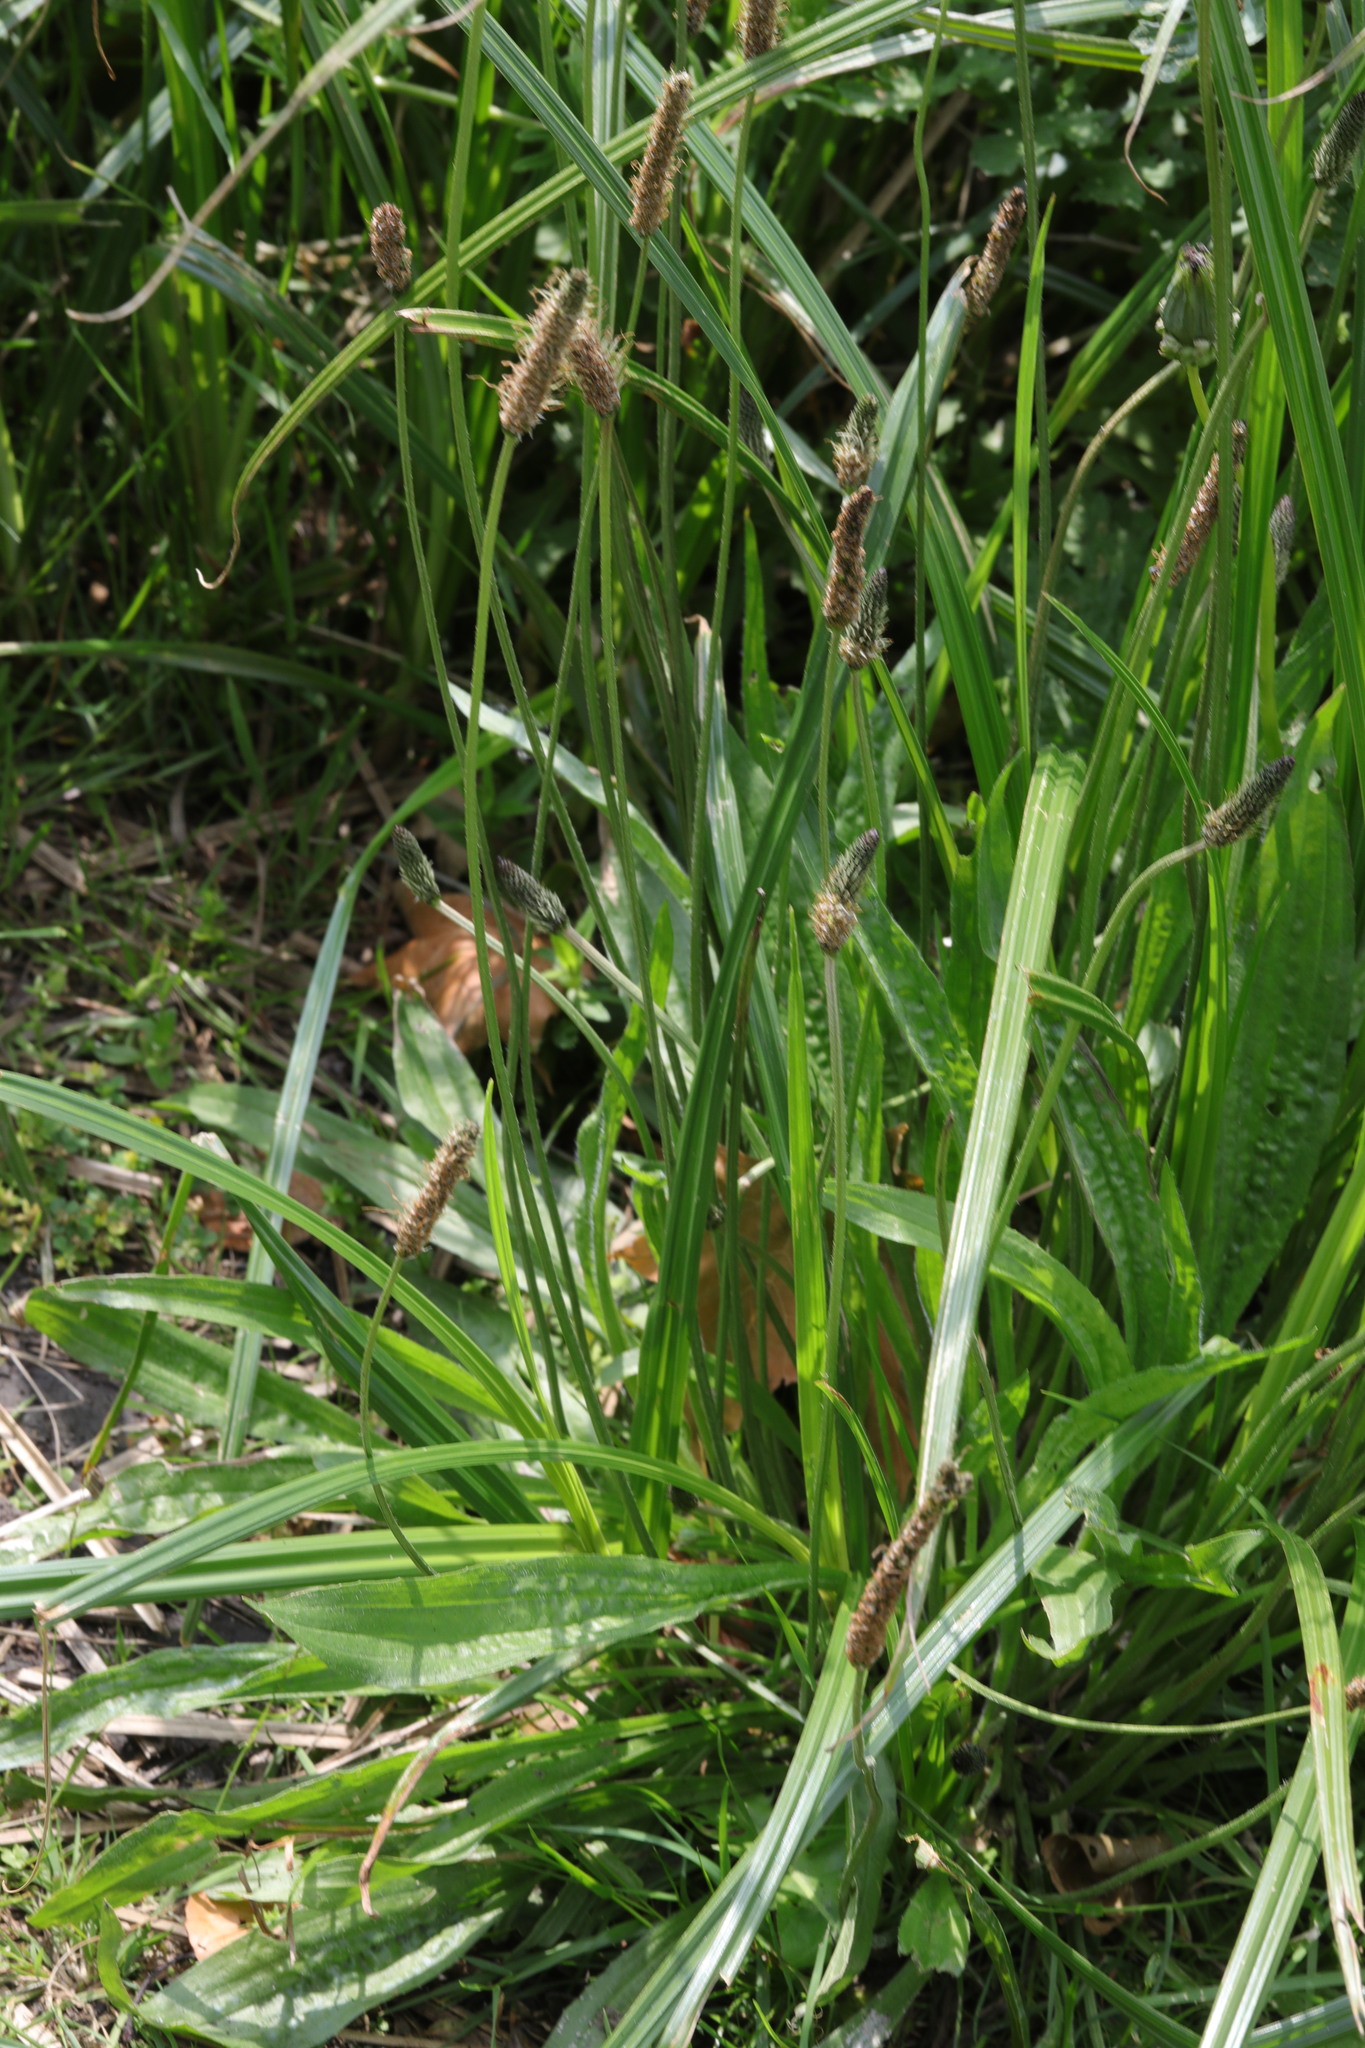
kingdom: Plantae
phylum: Tracheophyta
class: Magnoliopsida
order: Lamiales
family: Plantaginaceae
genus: Plantago
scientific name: Plantago lanceolata
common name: Ribwort plantain
